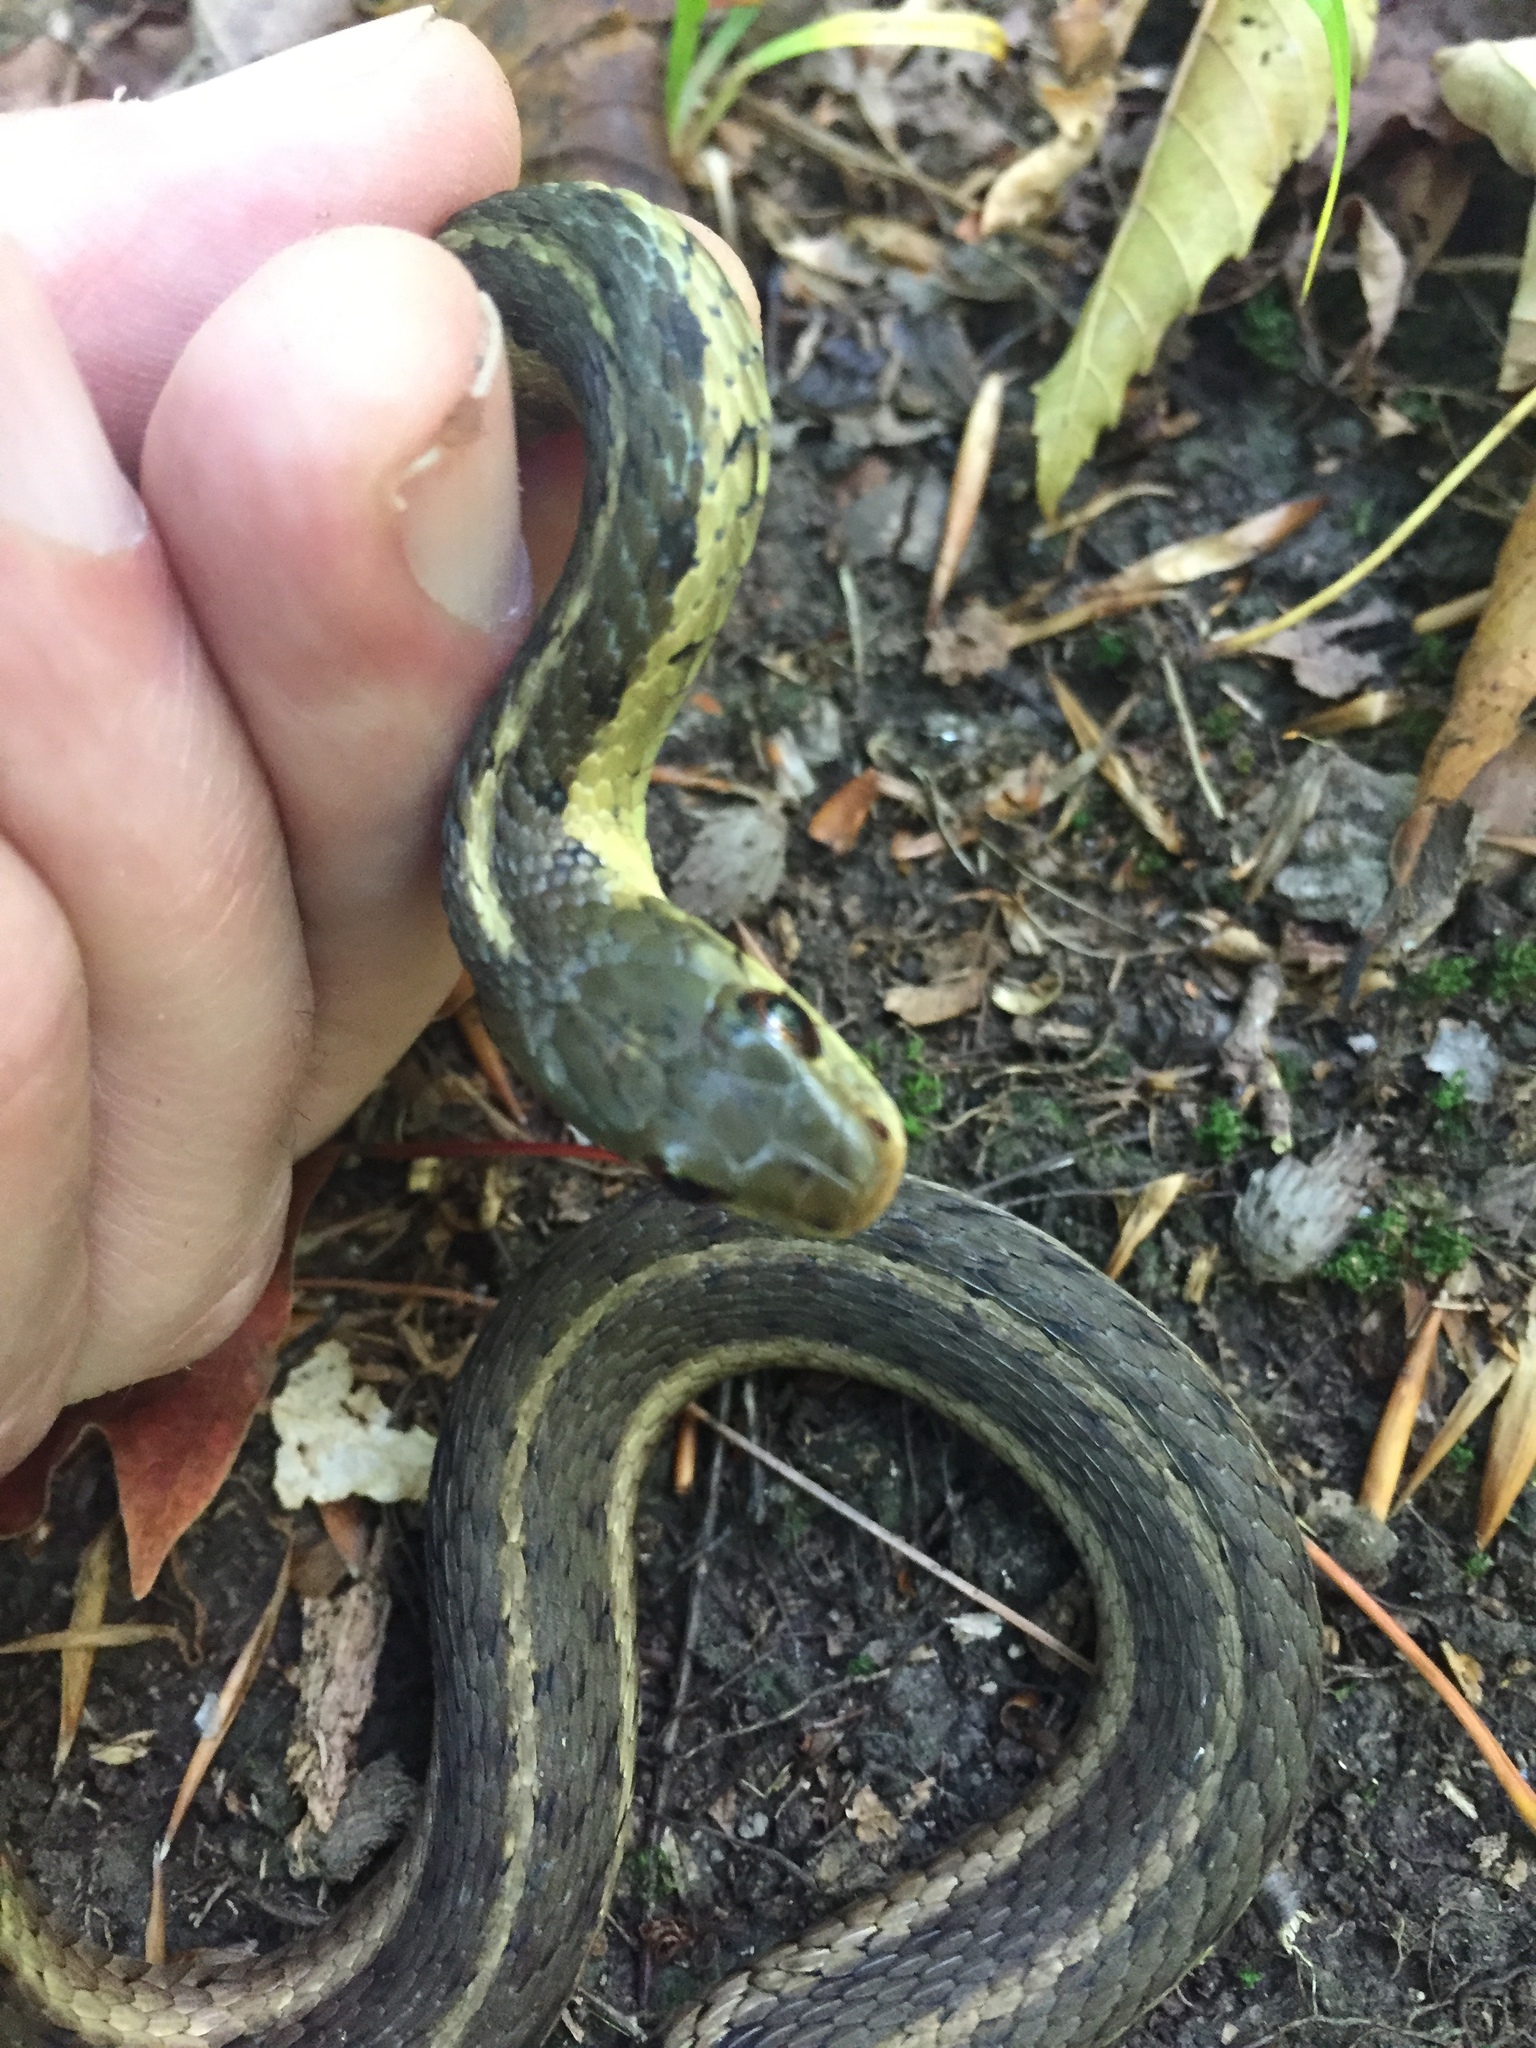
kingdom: Animalia
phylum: Chordata
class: Squamata
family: Colubridae
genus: Thamnophis
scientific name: Thamnophis sirtalis
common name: Common garter snake
